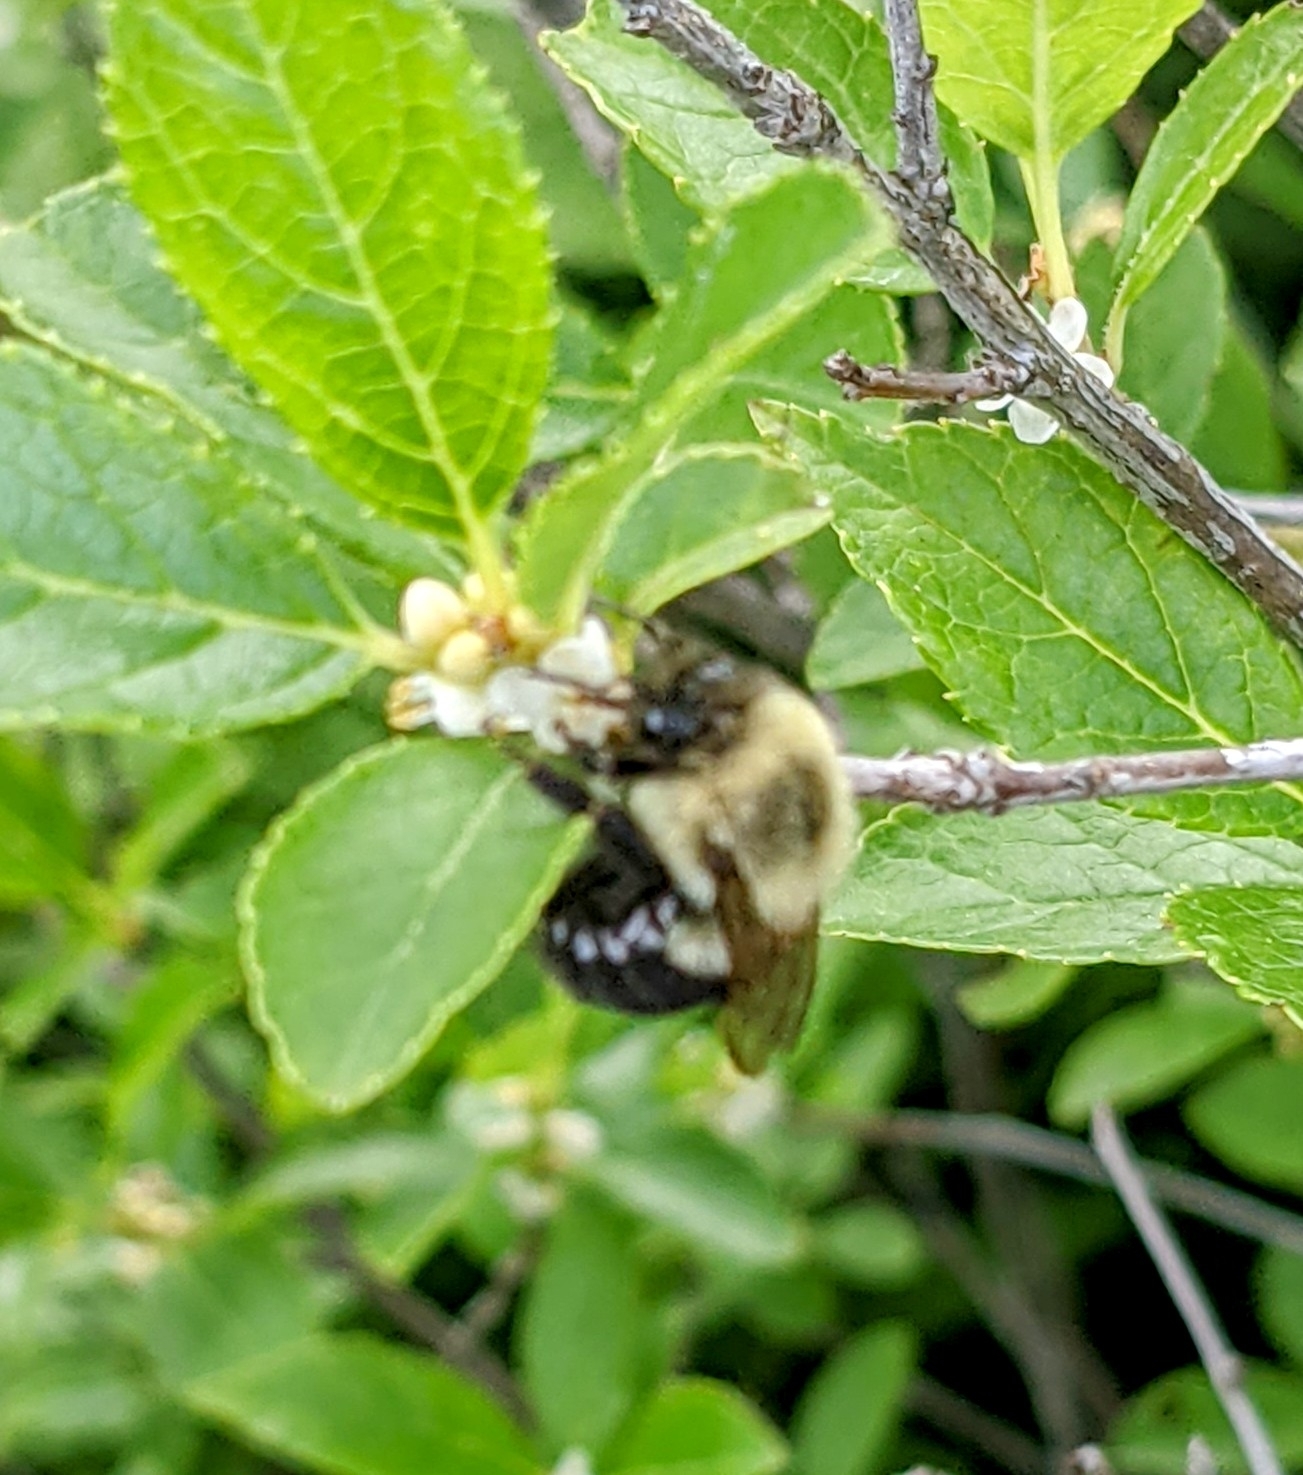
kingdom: Animalia
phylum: Arthropoda
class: Insecta
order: Hymenoptera
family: Apidae
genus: Bombus
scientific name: Bombus impatiens
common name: Common eastern bumble bee
